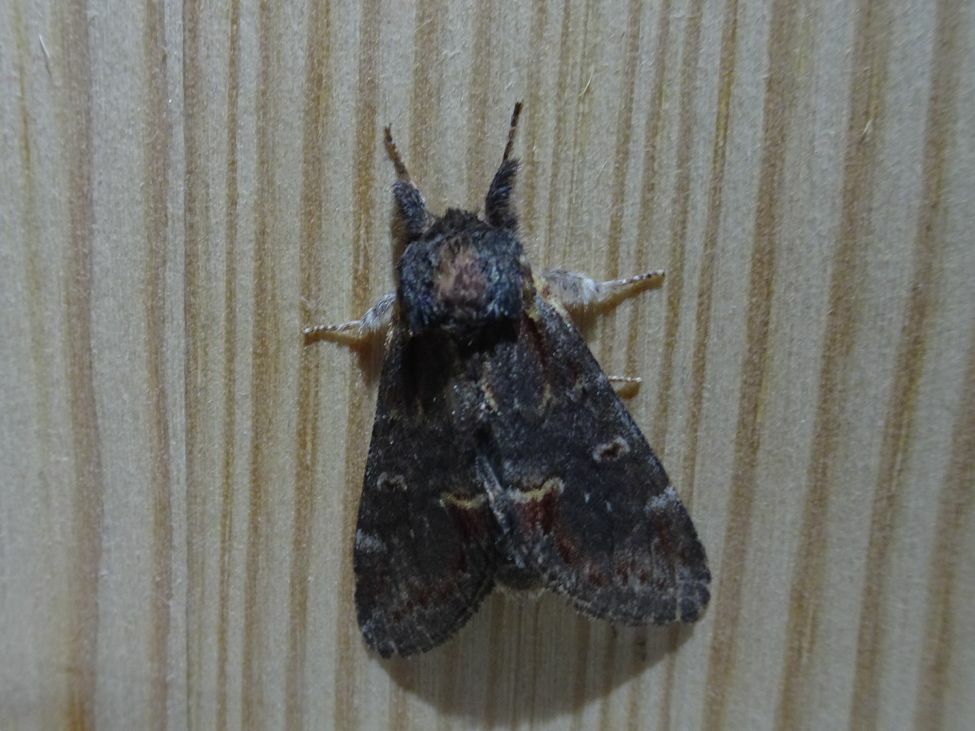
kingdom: Animalia
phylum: Arthropoda
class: Insecta
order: Lepidoptera
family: Notodontidae
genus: Notodonta
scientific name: Notodonta dromedarius
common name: Iron prominent
